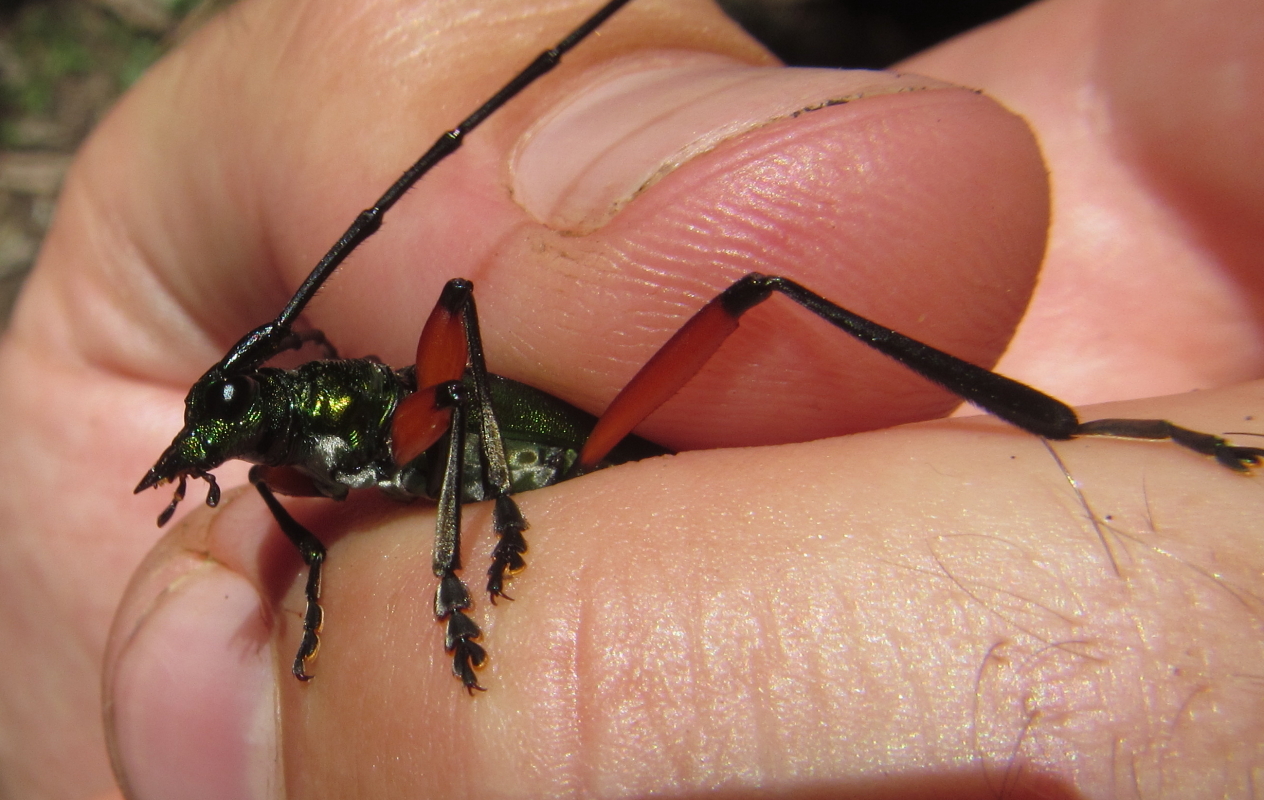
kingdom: Animalia
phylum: Arthropoda
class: Insecta
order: Coleoptera
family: Cerambycidae
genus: Philematium
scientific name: Philematium virens
